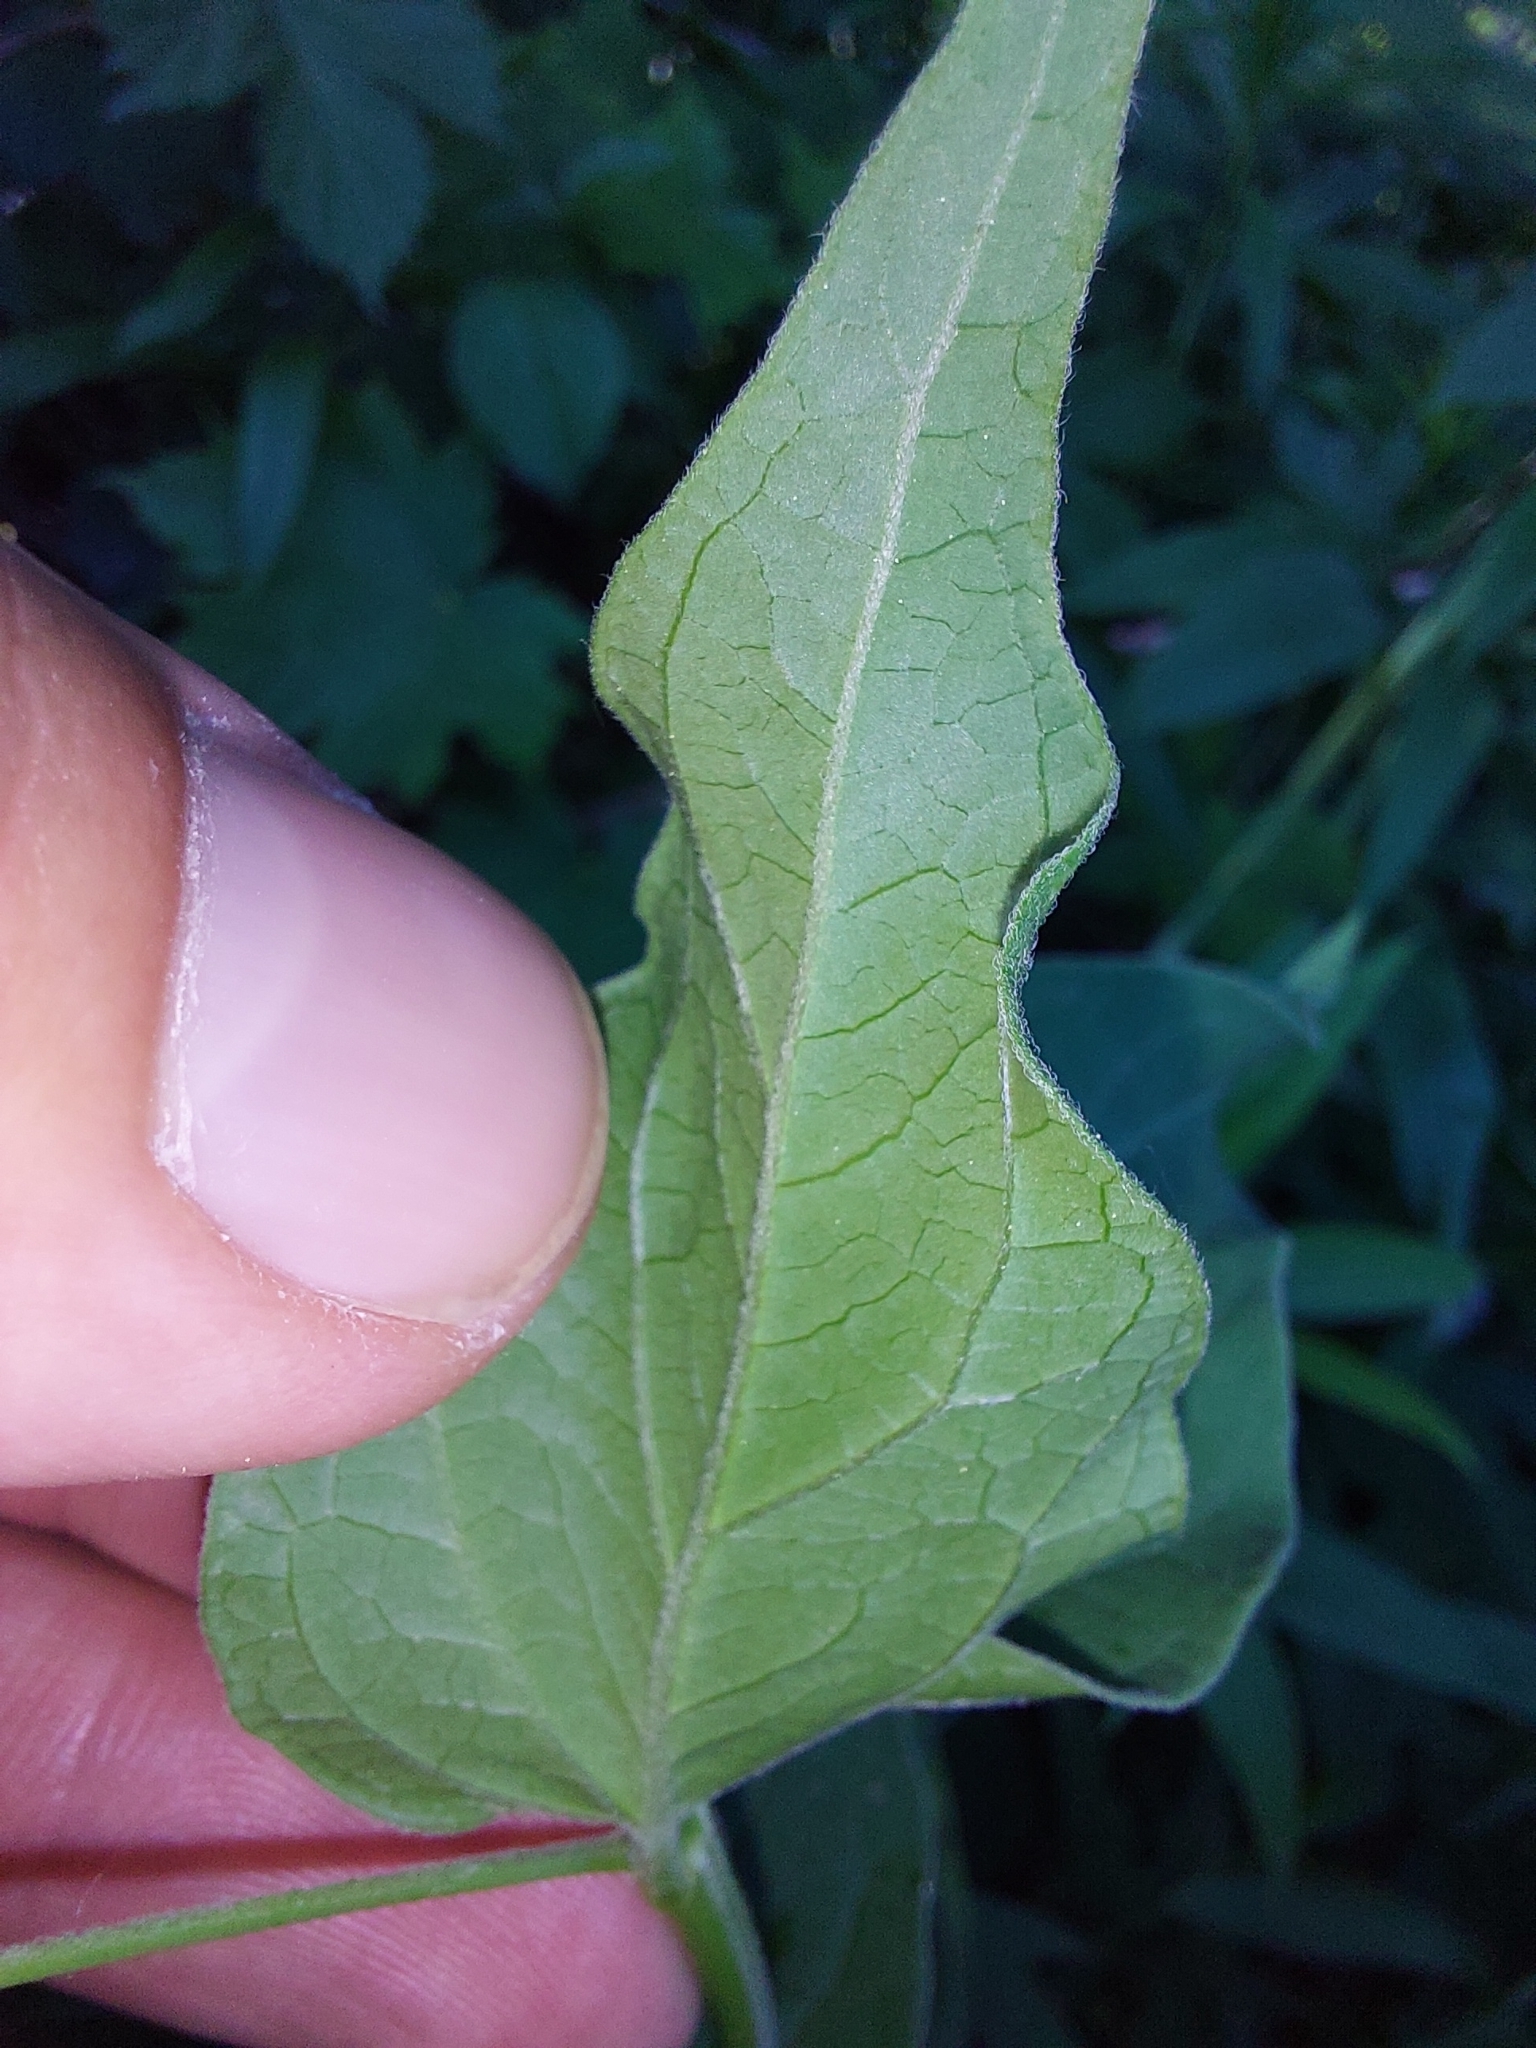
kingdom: Plantae
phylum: Tracheophyta
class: Magnoliopsida
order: Gentianales
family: Apocynaceae
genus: Vincetoxicum
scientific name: Vincetoxicum hirundinaria
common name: White swallowwort
